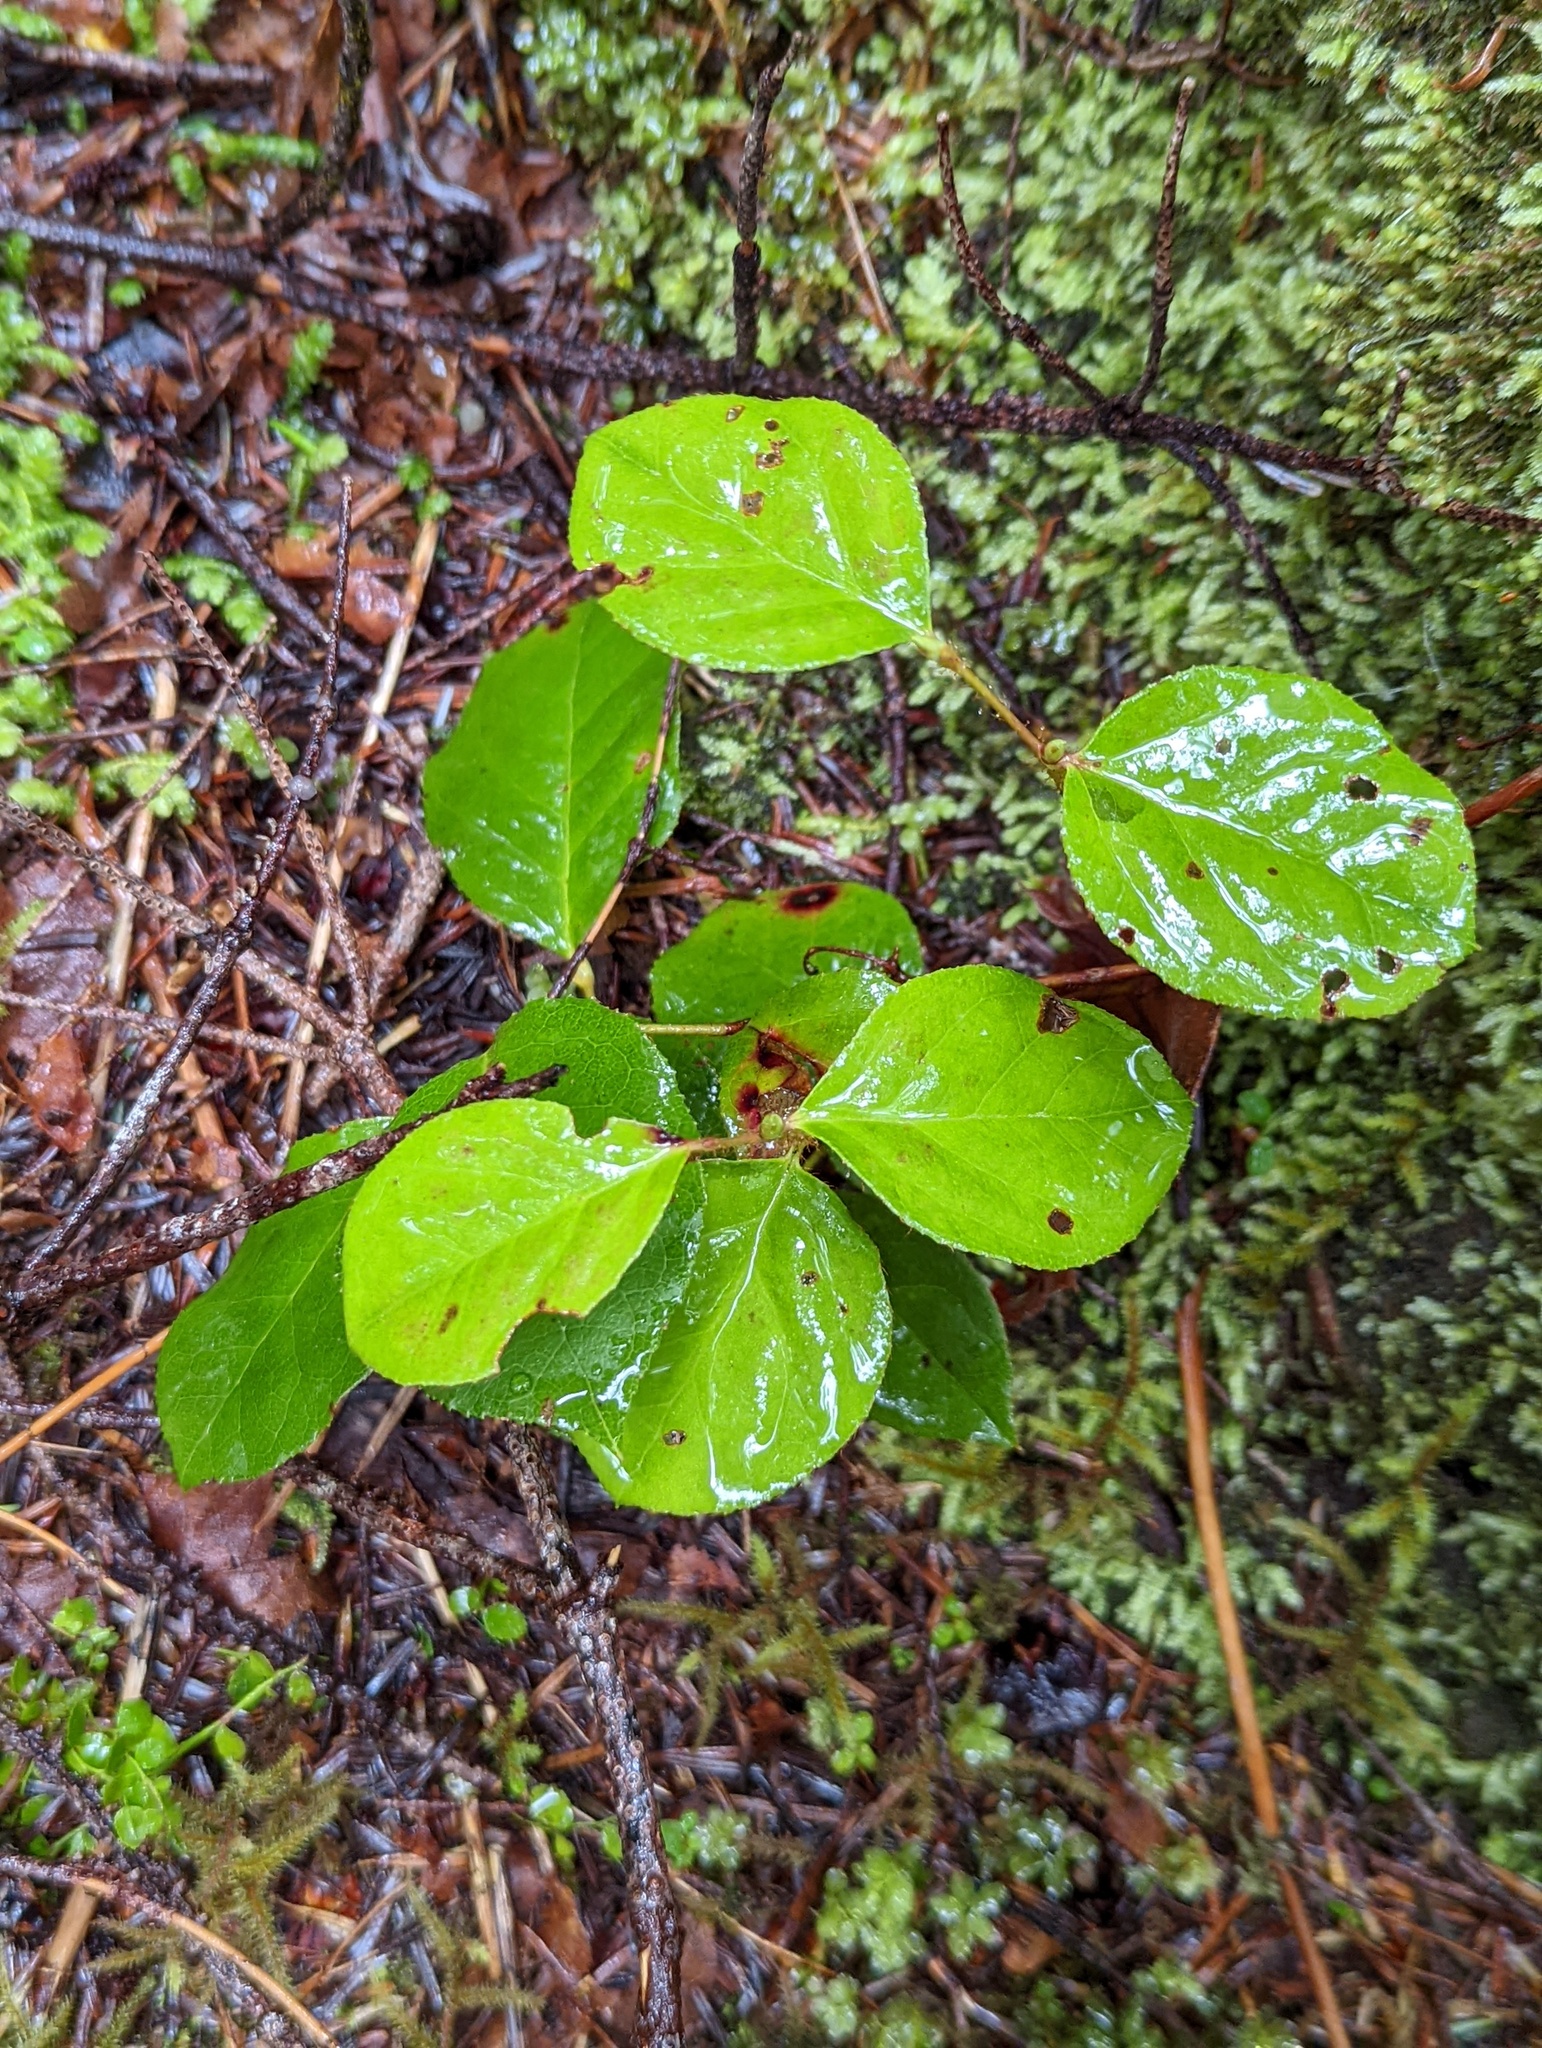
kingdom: Plantae
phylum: Tracheophyta
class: Magnoliopsida
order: Ericales
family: Ericaceae
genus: Gaultheria
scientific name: Gaultheria shallon
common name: Shallon
